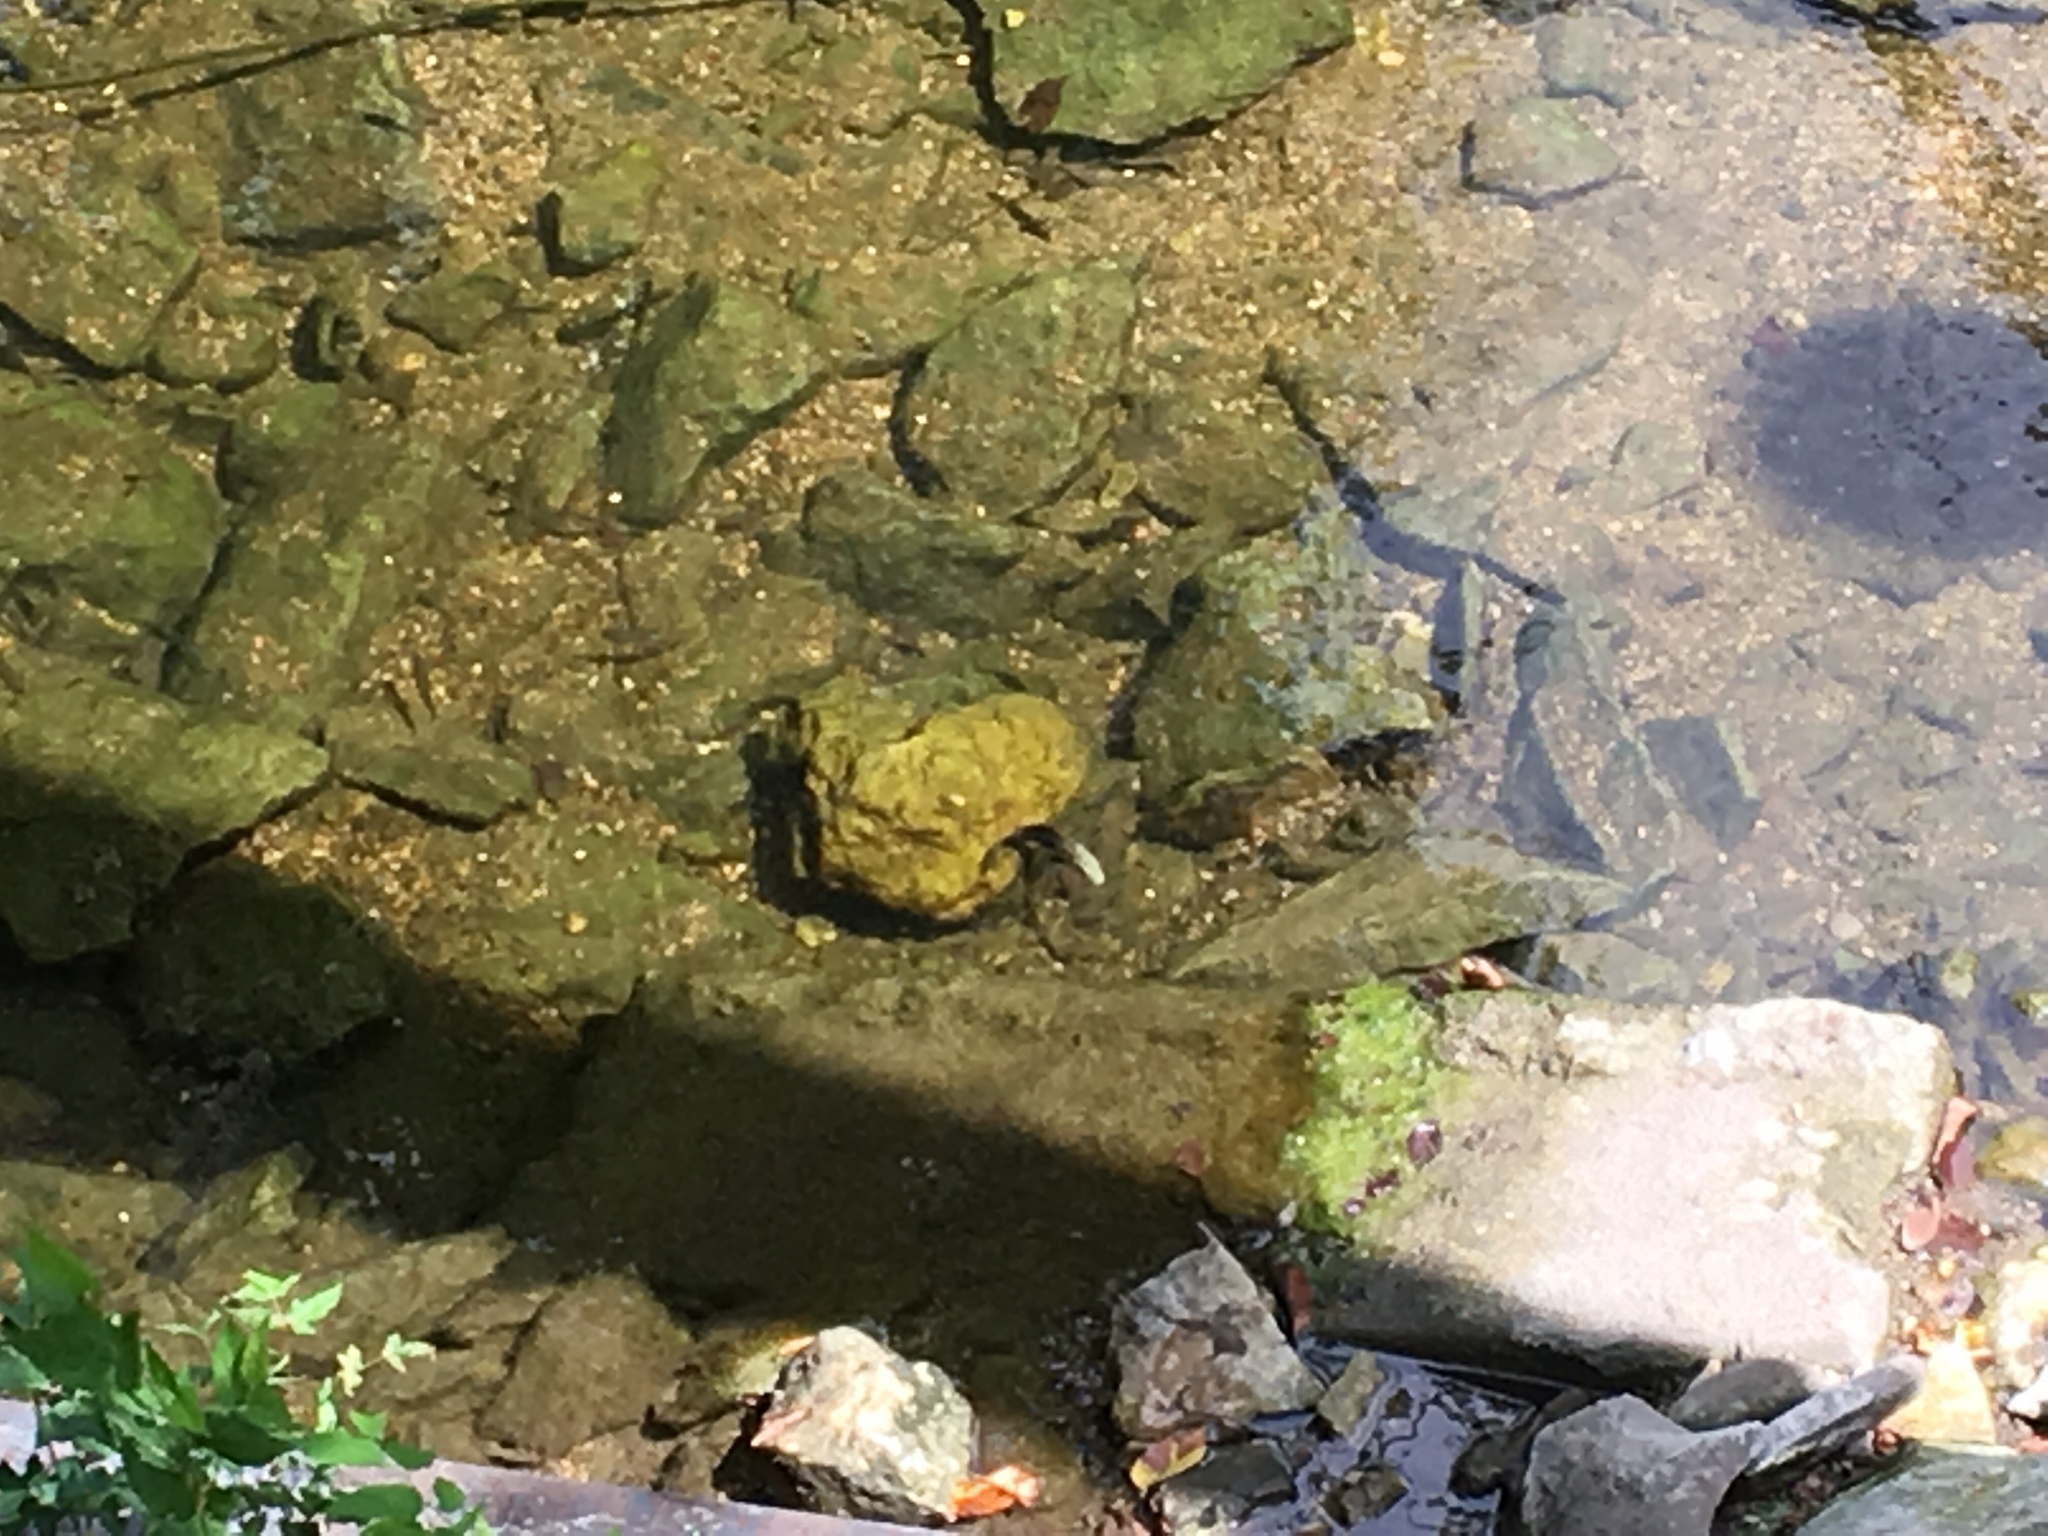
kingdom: Animalia
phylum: Chordata
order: Perciformes
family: Cichlidae
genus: Herichthys
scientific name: Herichthys cyanoguttatus
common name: Rio grande cichlid
